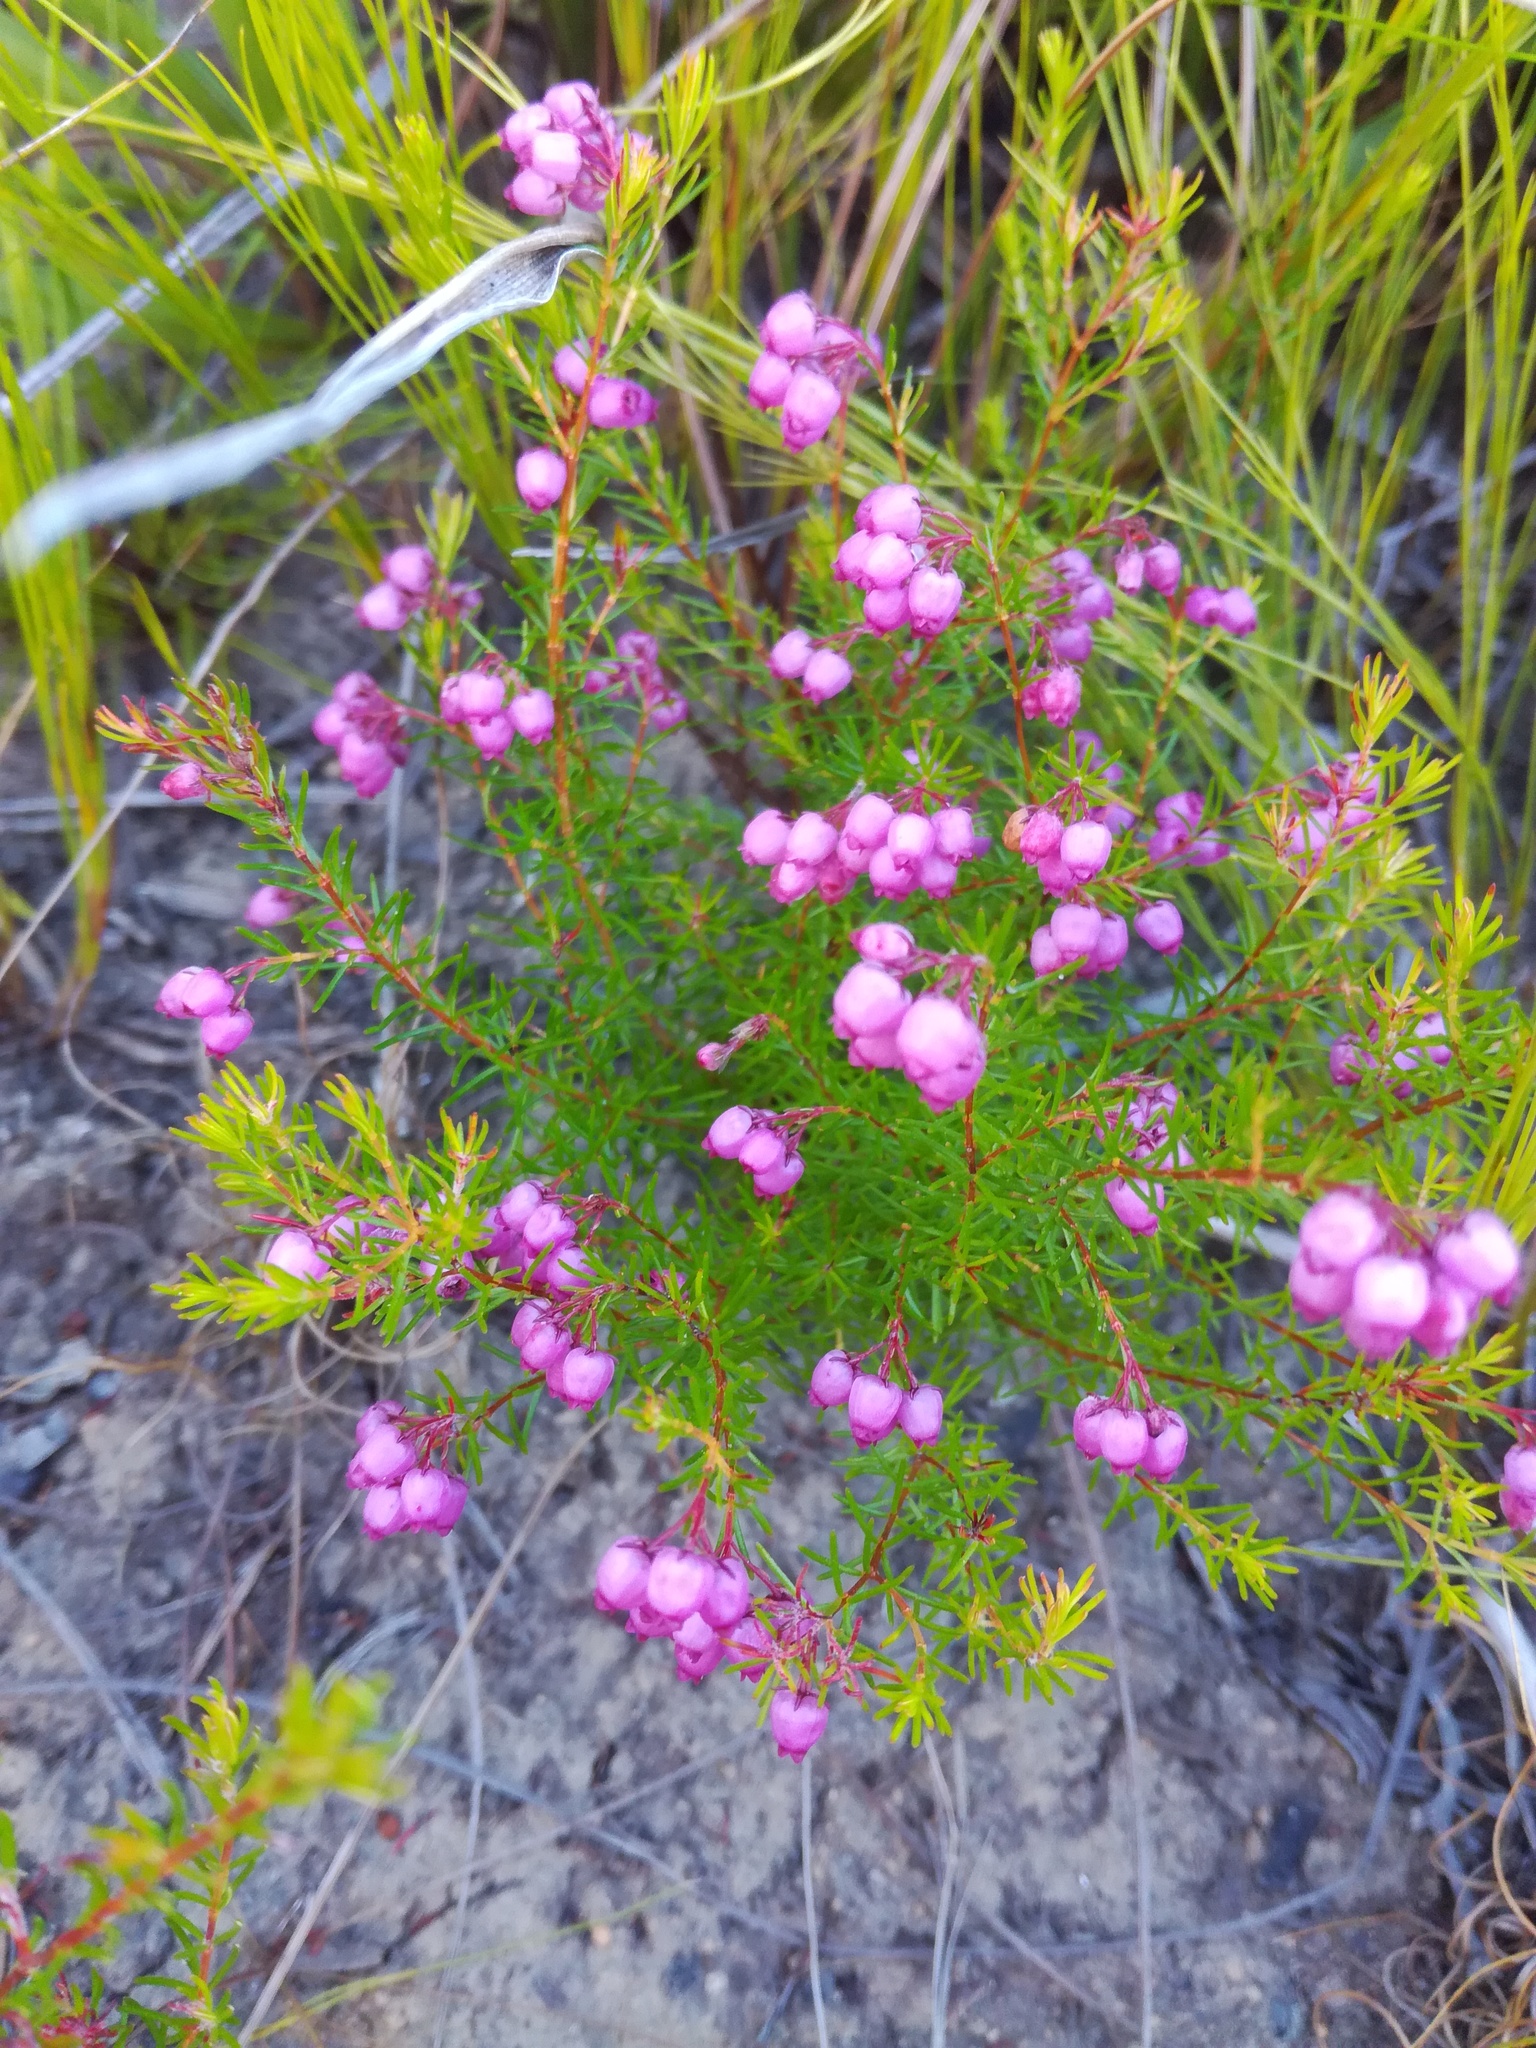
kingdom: Plantae
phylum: Tracheophyta
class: Magnoliopsida
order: Ericales
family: Ericaceae
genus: Erica
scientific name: Erica multumbellifera
